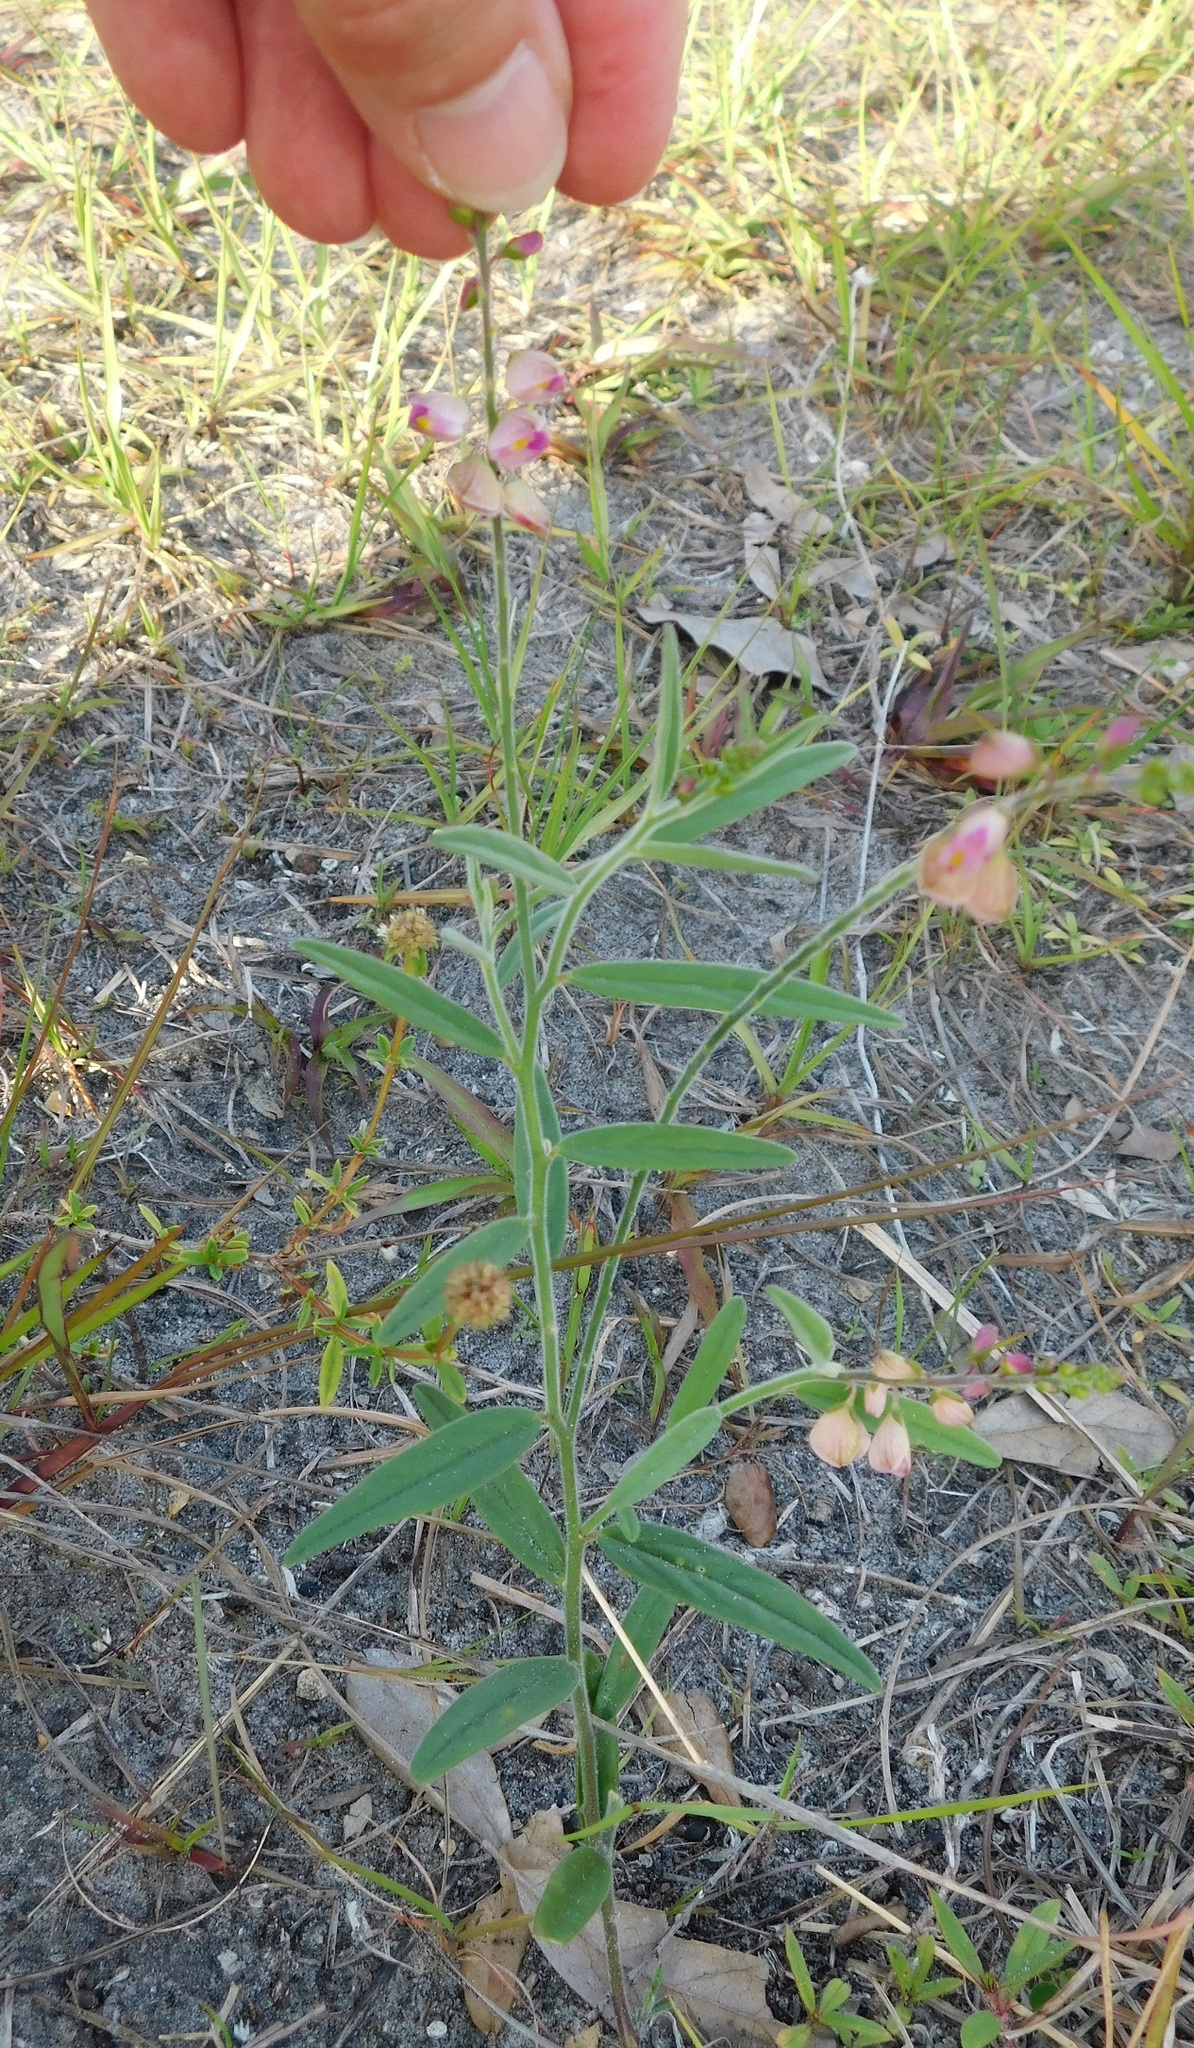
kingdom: Plantae
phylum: Tracheophyta
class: Magnoliopsida
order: Fabales
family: Polygalaceae
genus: Asemeia
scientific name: Asemeia grandiflora
